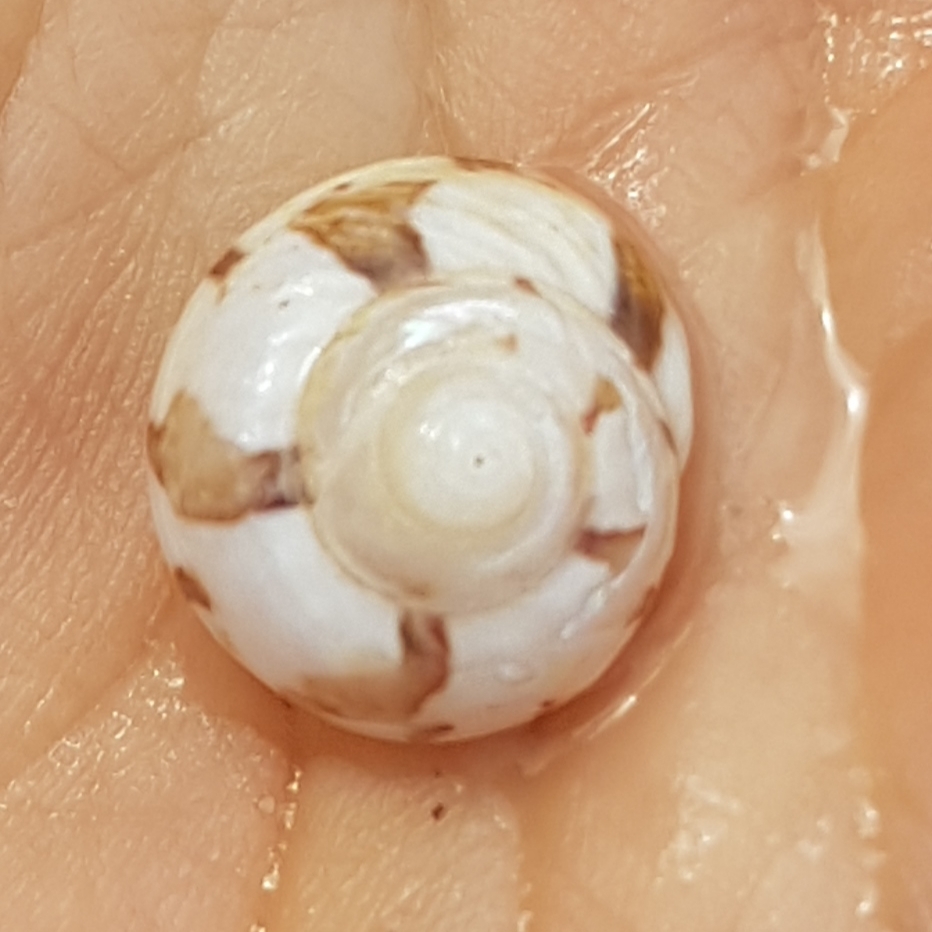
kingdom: Animalia
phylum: Mollusca
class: Gastropoda
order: Trochida
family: Trochidae
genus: Gibbula
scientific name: Gibbula magus
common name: Turban top shell
